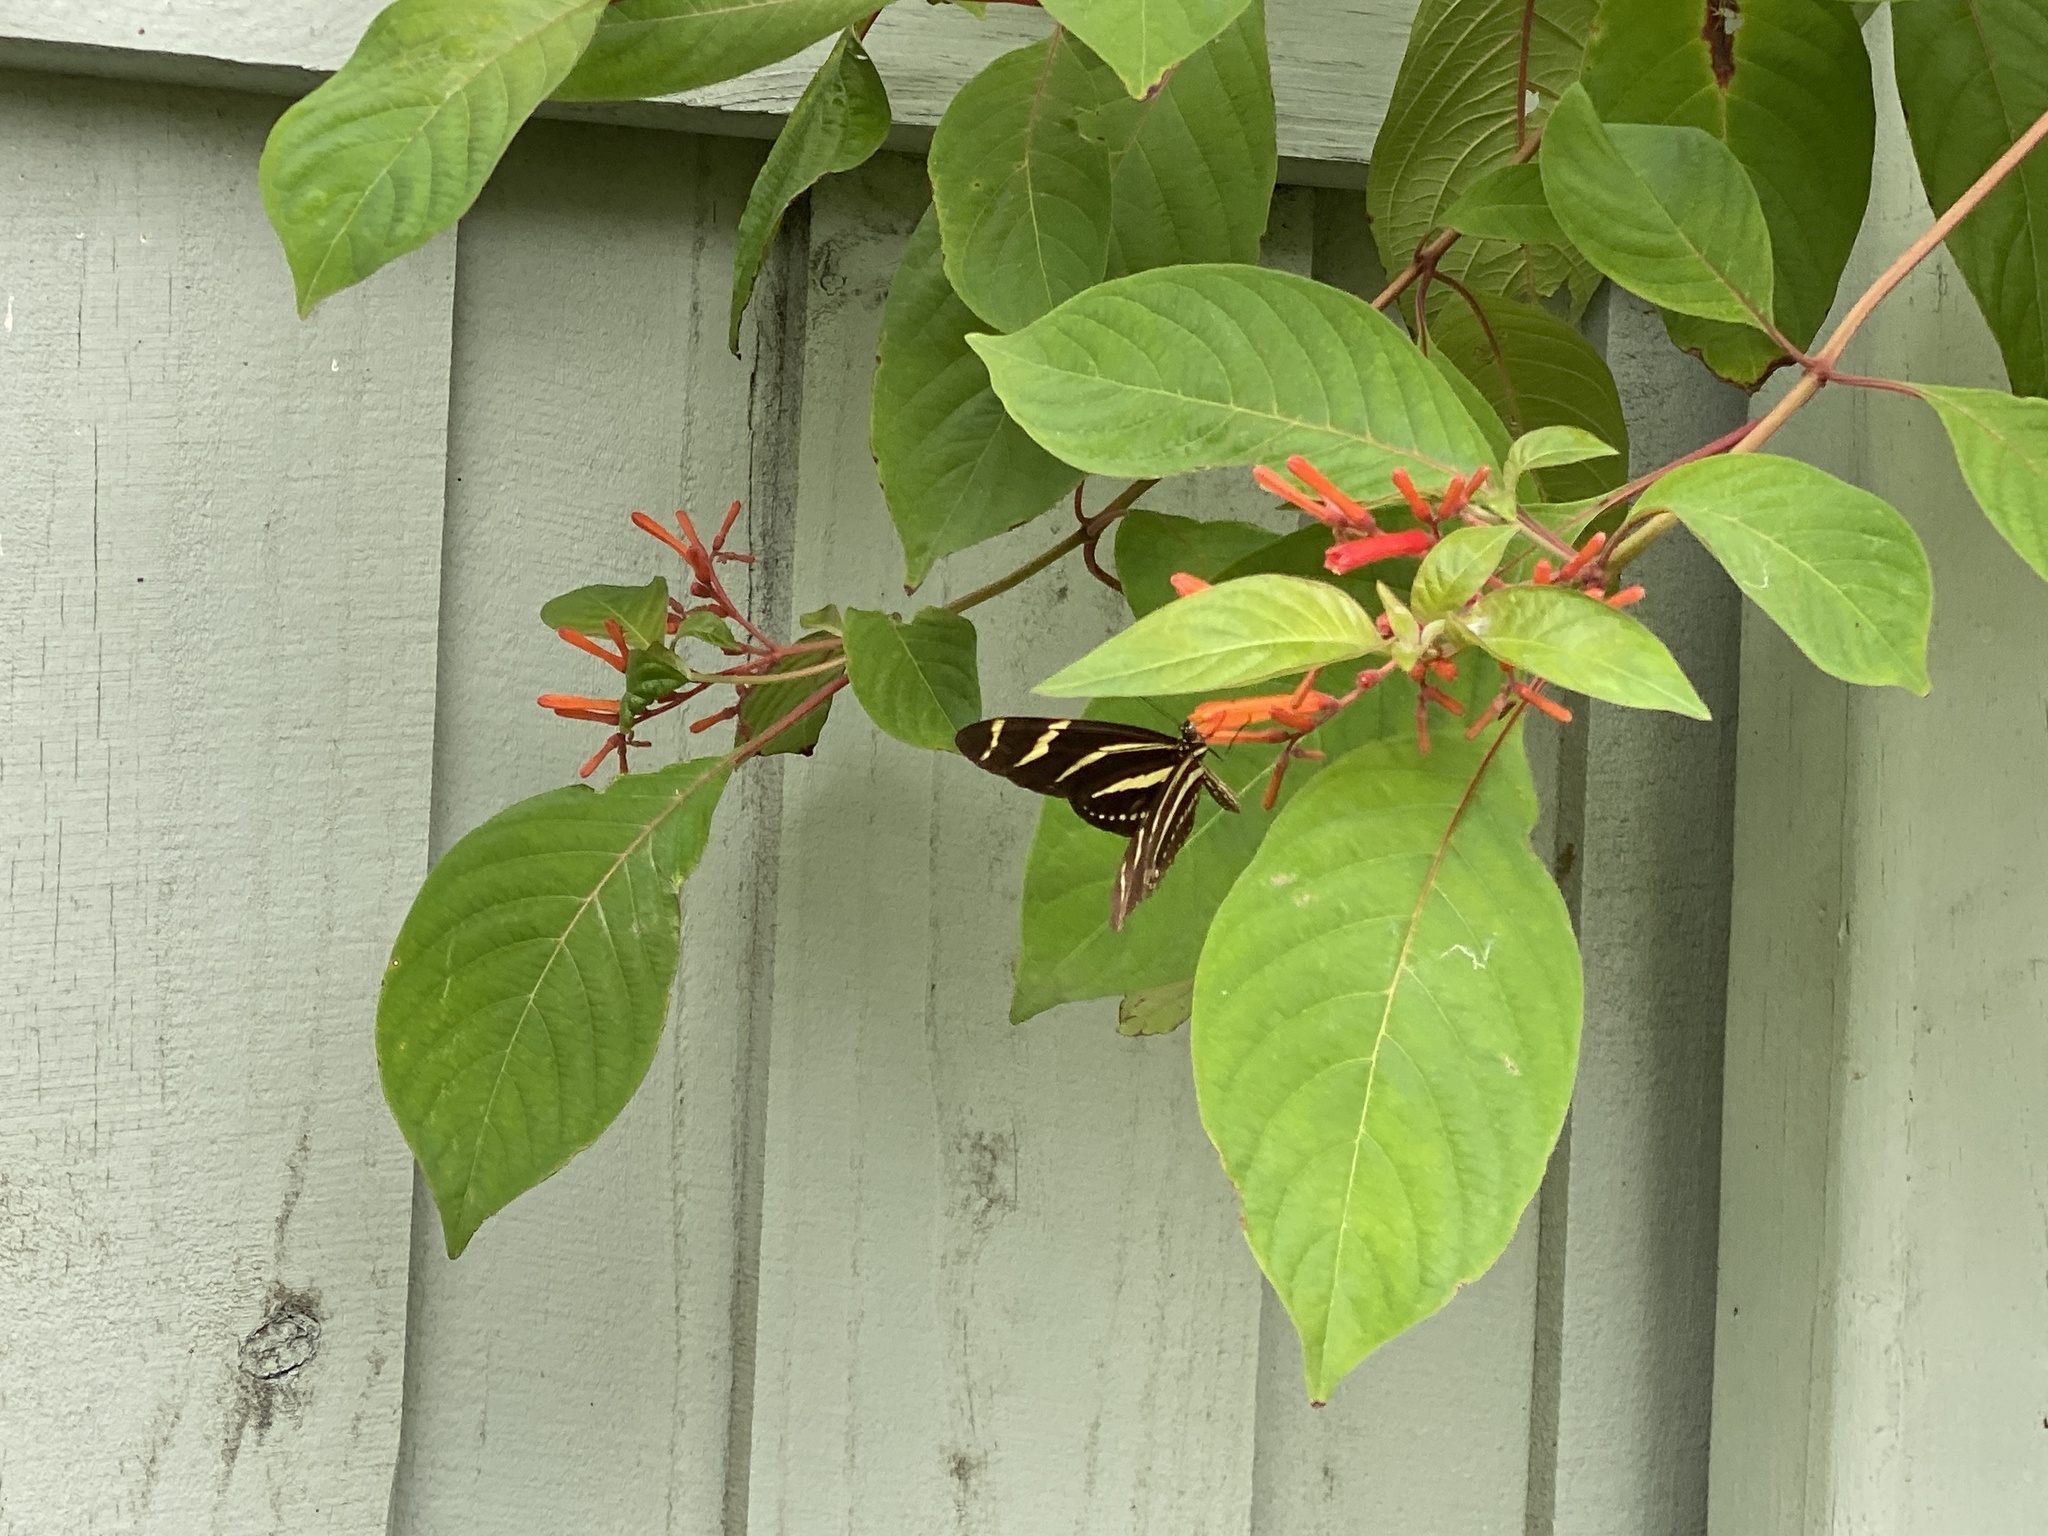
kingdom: Animalia
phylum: Arthropoda
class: Insecta
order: Lepidoptera
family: Nymphalidae
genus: Heliconius
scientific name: Heliconius charithonia
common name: Zebra long wing
